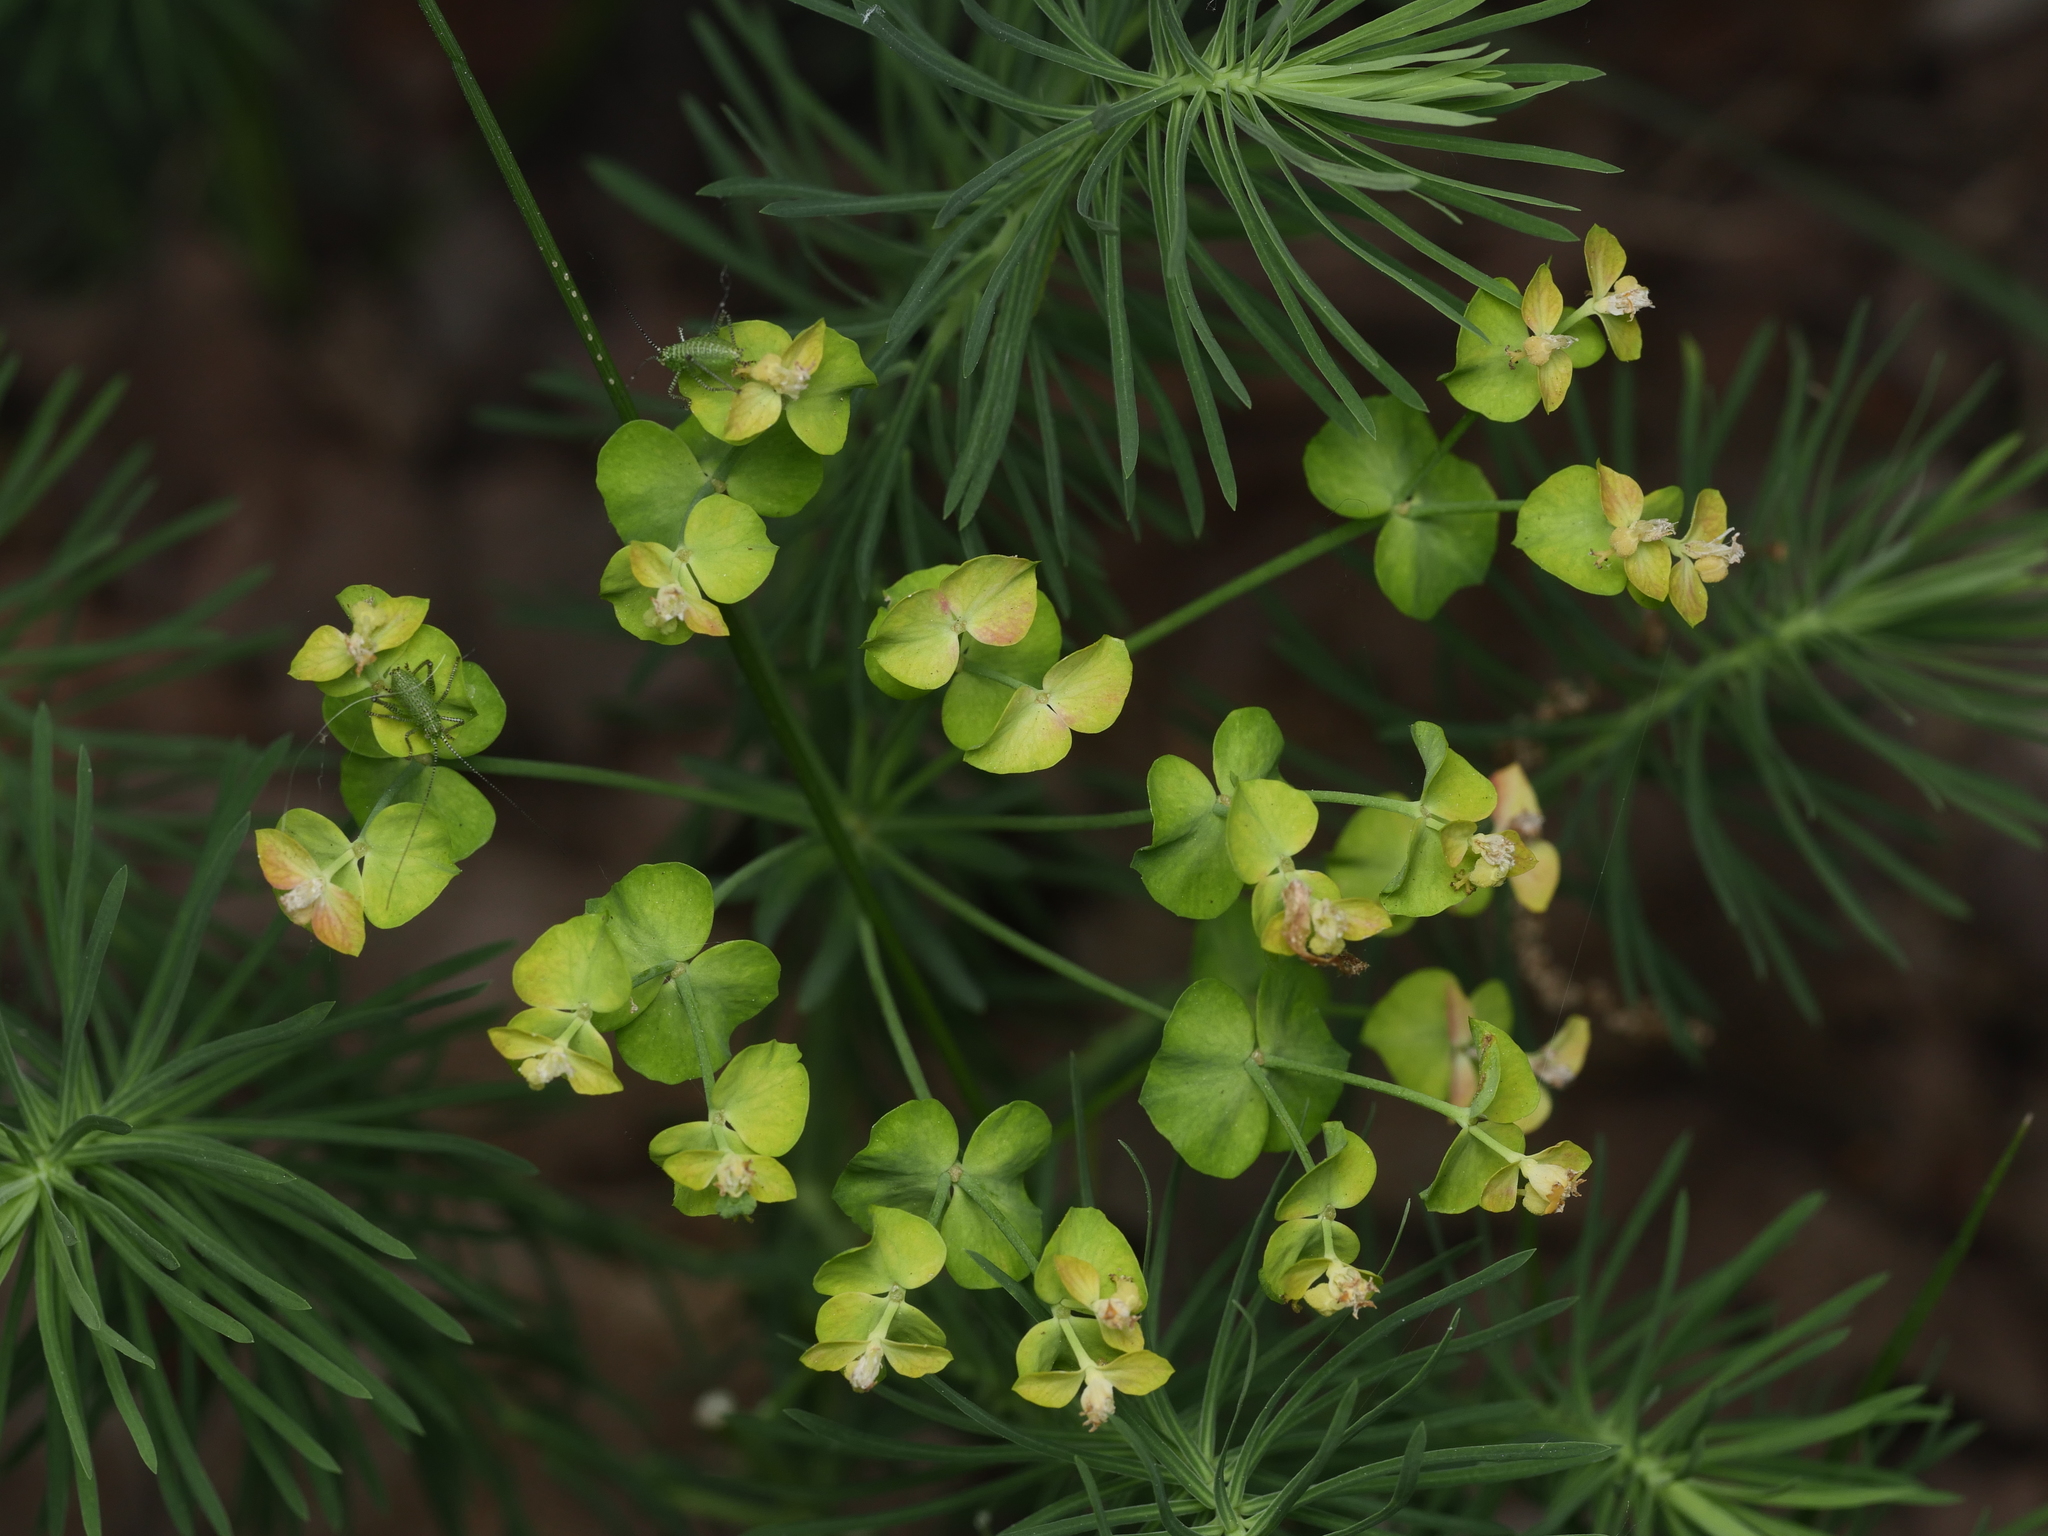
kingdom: Plantae
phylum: Tracheophyta
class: Magnoliopsida
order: Malpighiales
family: Euphorbiaceae
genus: Euphorbia
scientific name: Euphorbia cyparissias
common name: Cypress spurge
